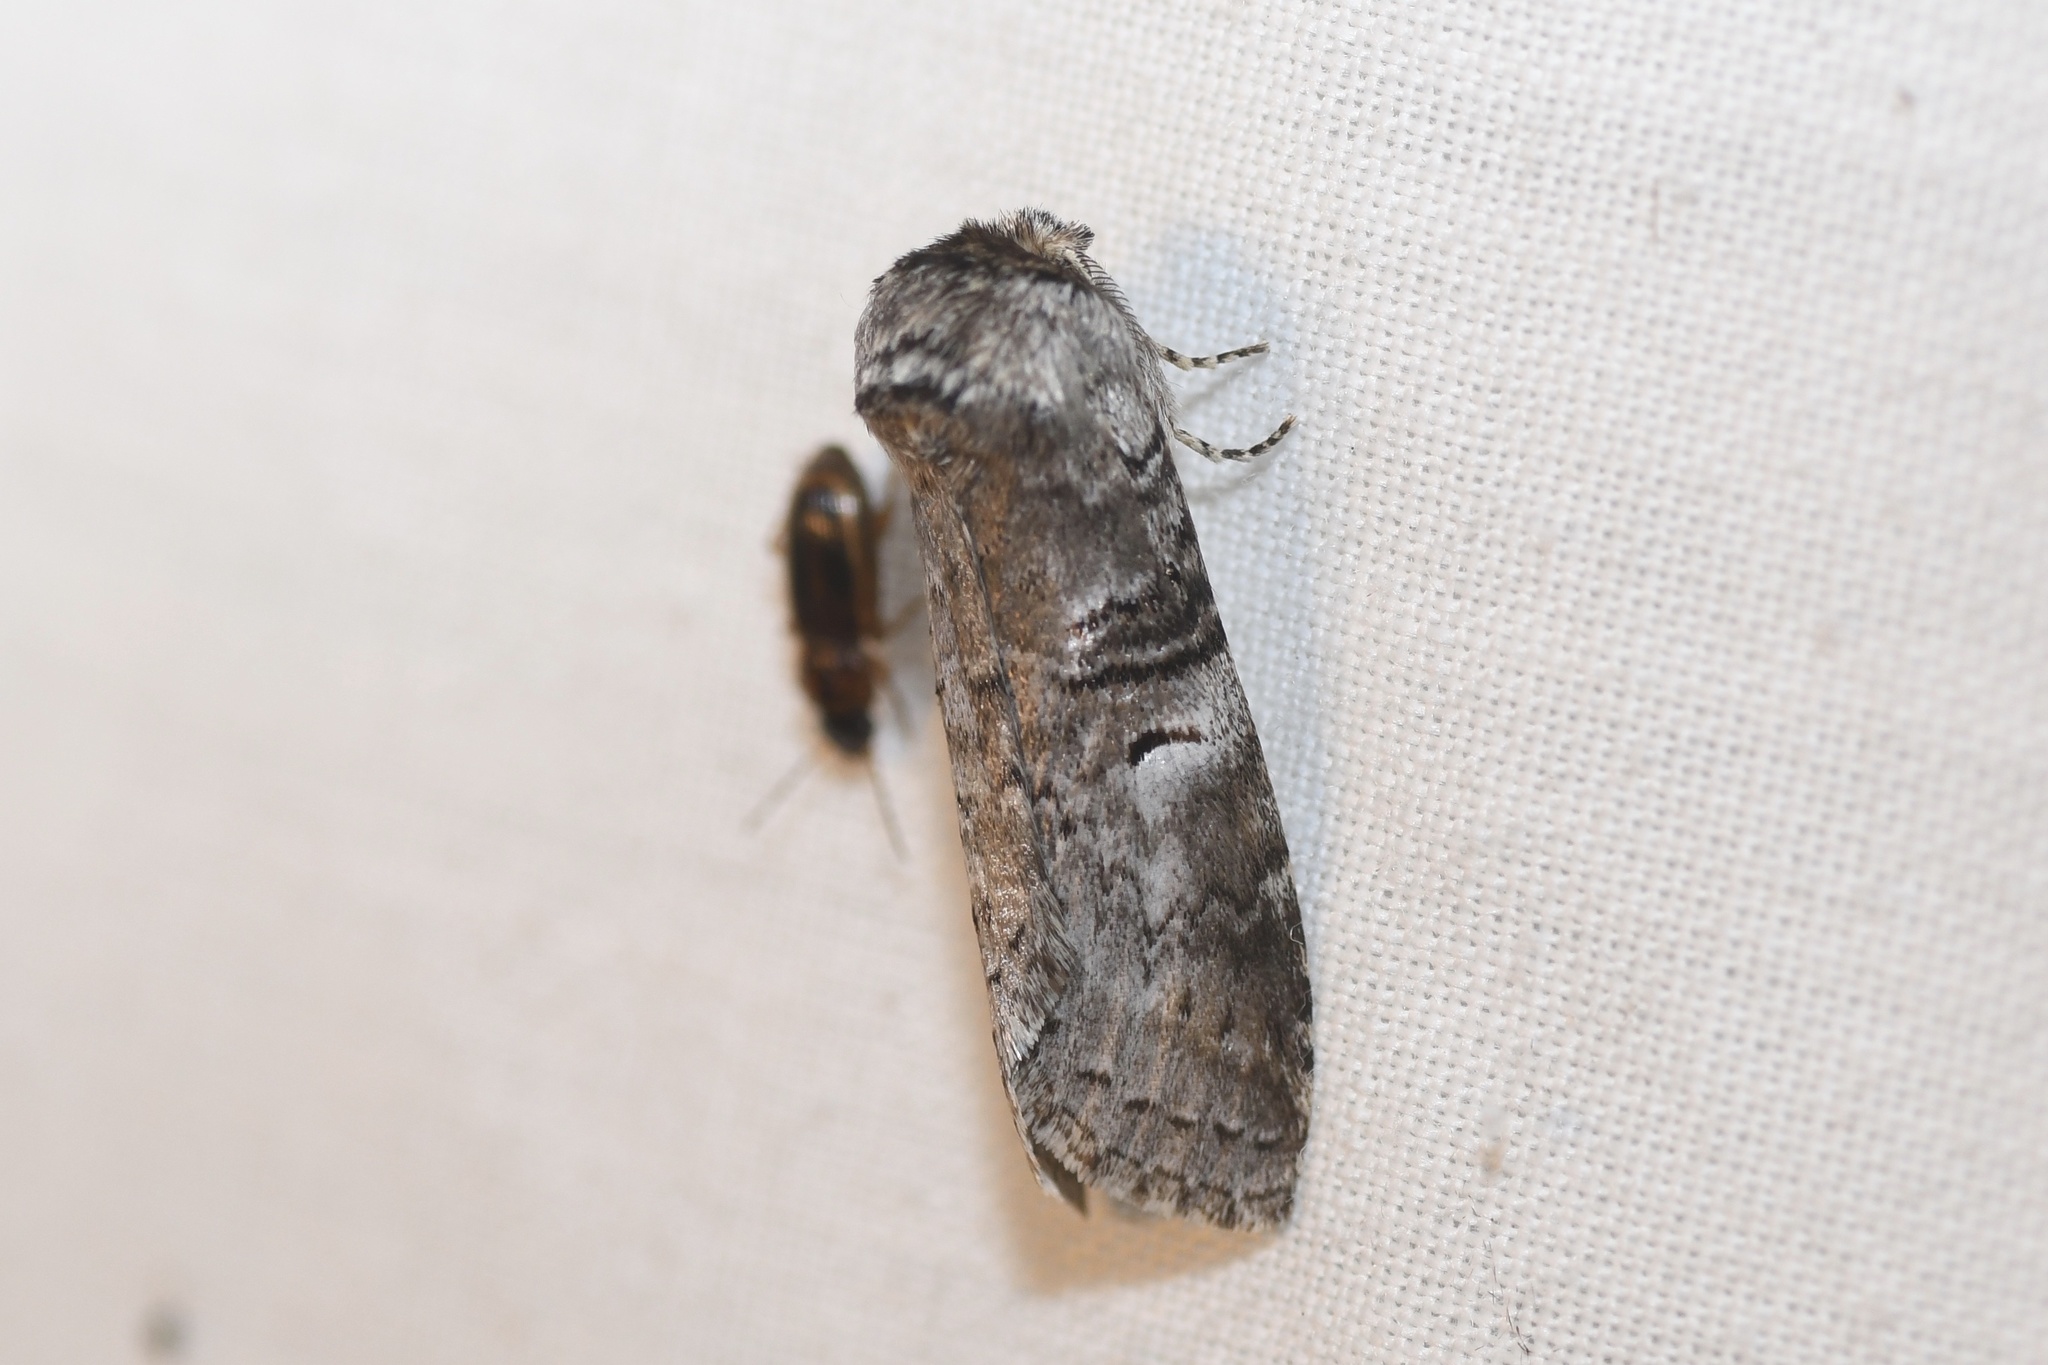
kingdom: Animalia
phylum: Arthropoda
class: Insecta
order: Lepidoptera
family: Notodontidae
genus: Ellida
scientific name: Ellida caniplaga
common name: Linden prominent
